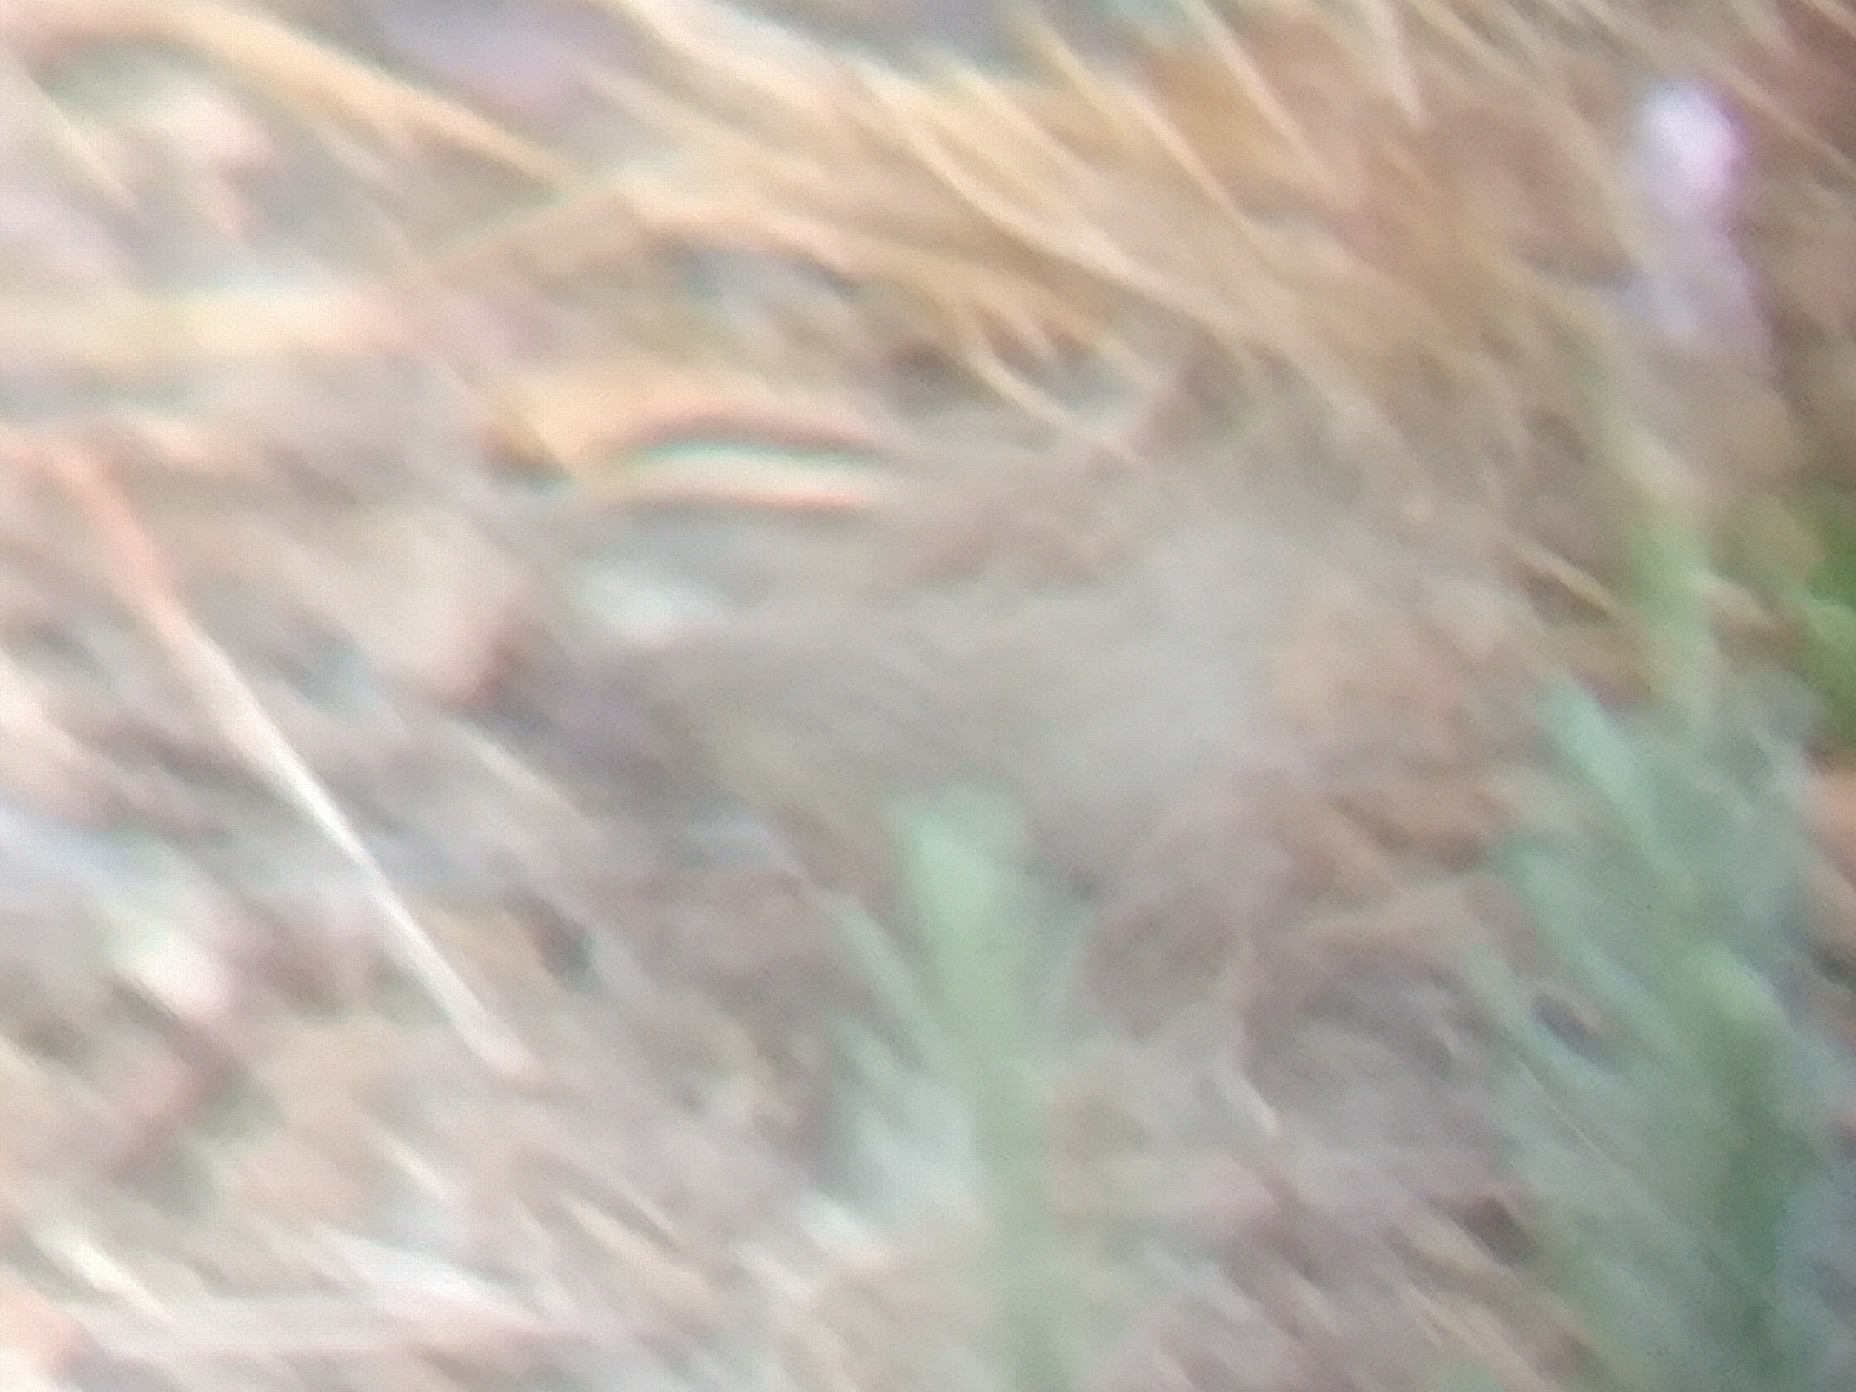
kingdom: Animalia
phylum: Chordata
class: Aves
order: Passeriformes
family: Passerellidae
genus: Zonotrichia
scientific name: Zonotrichia albicollis
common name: White-throated sparrow
